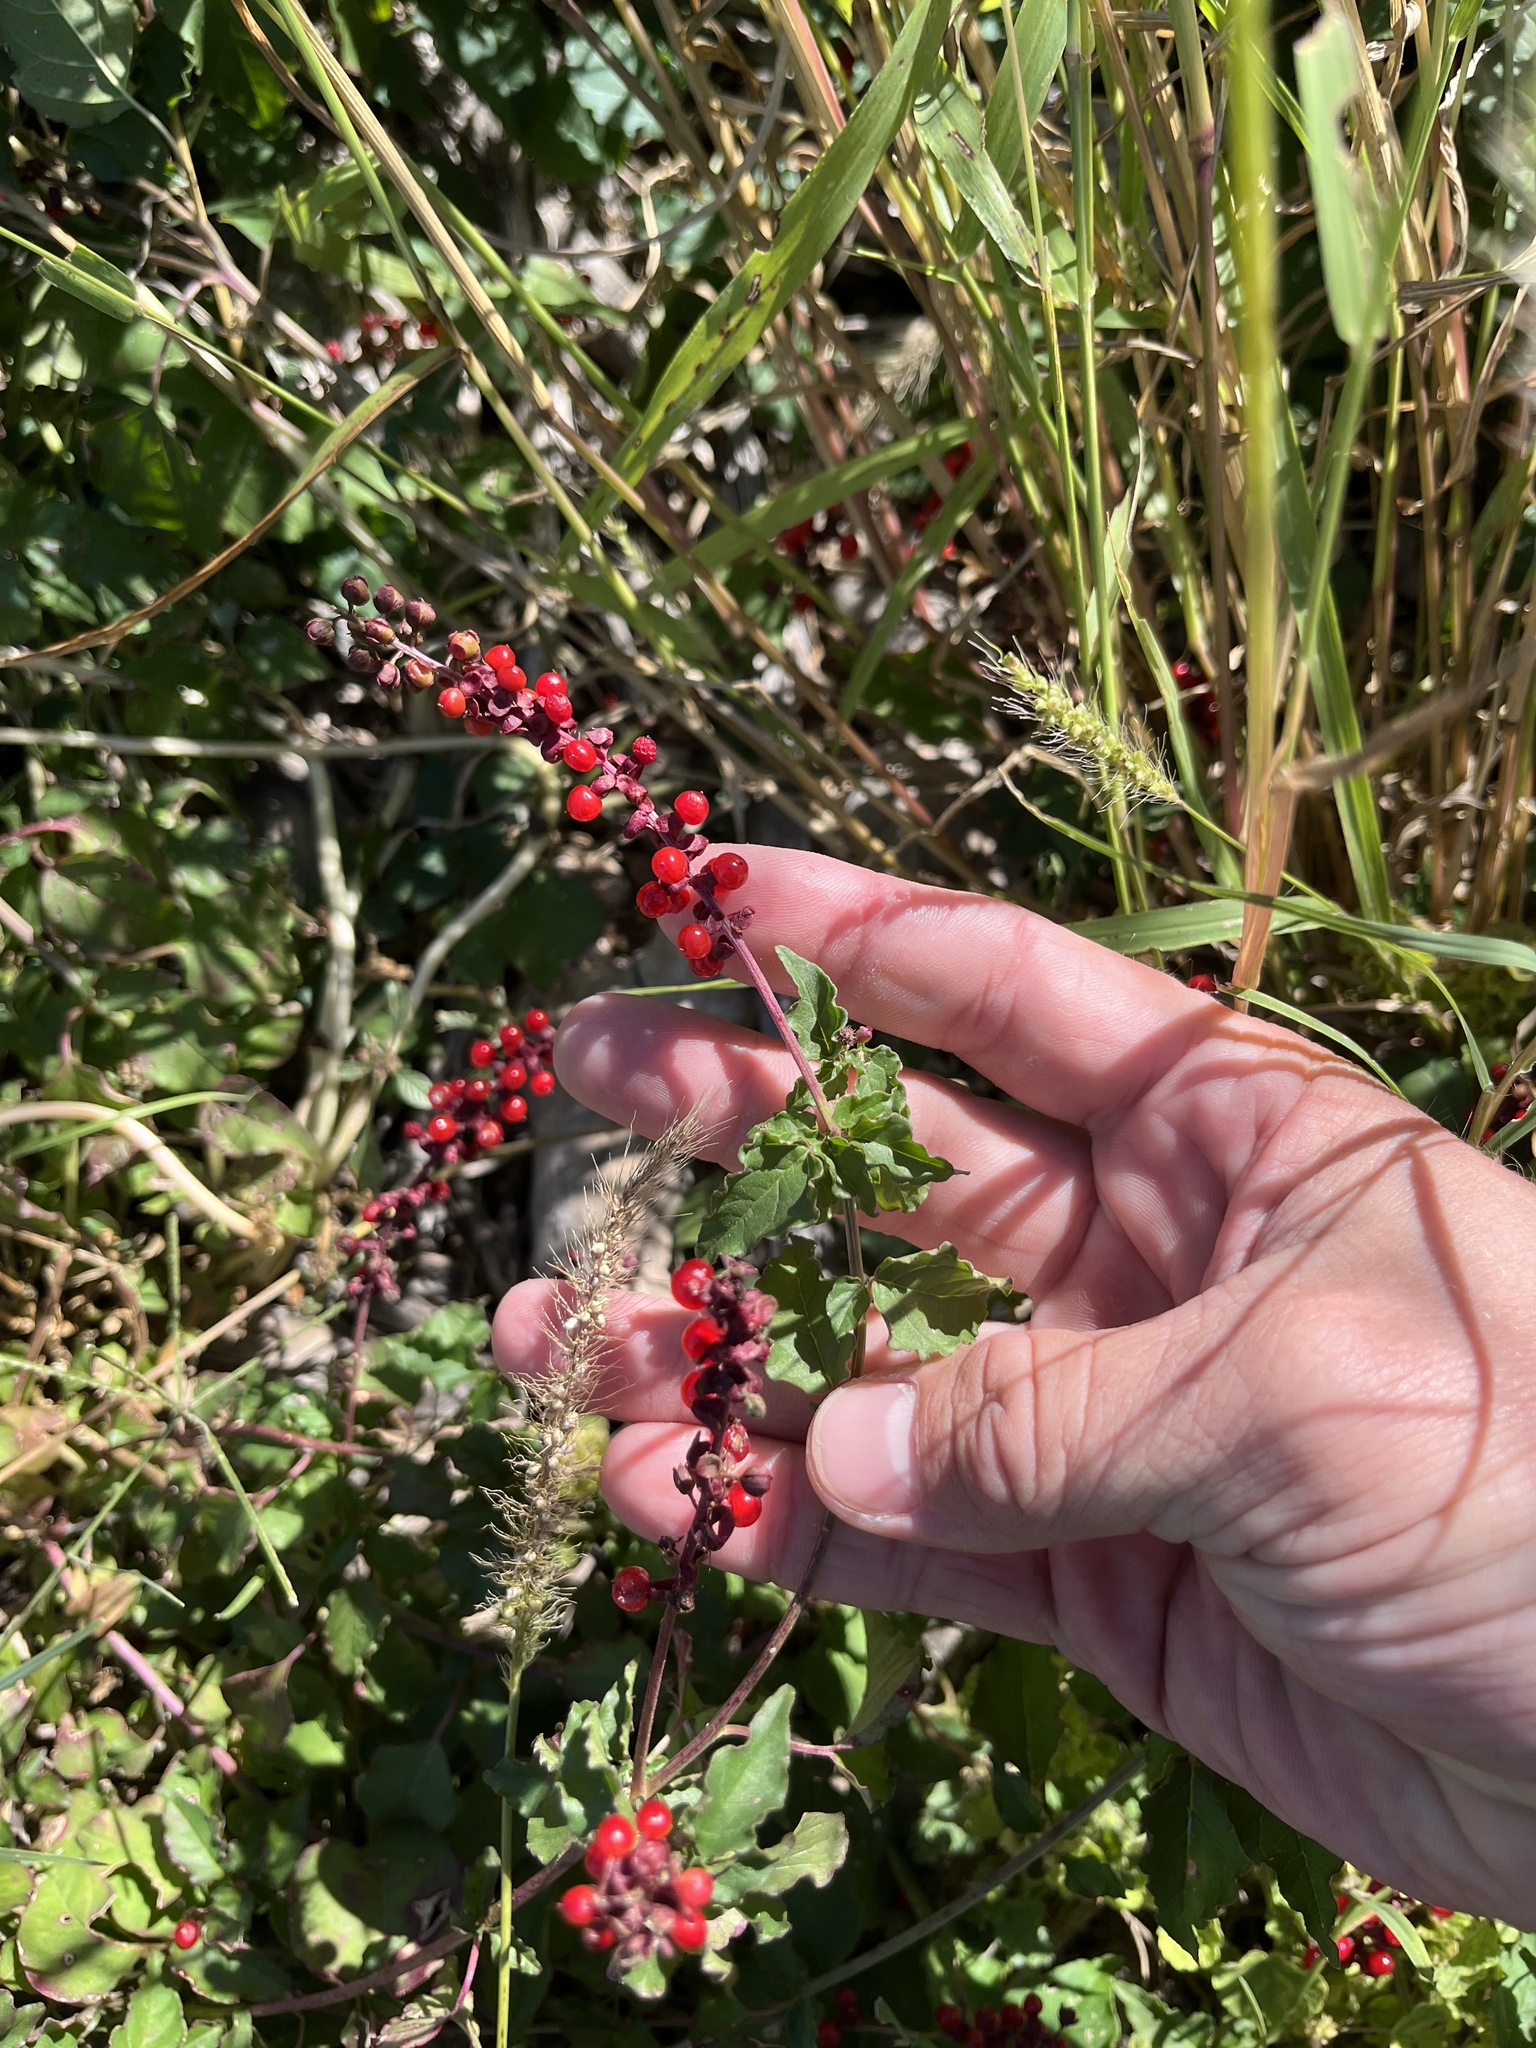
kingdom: Plantae
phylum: Tracheophyta
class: Magnoliopsida
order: Caryophyllales
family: Phytolaccaceae
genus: Rivina
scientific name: Rivina humilis
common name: Rougeplant
